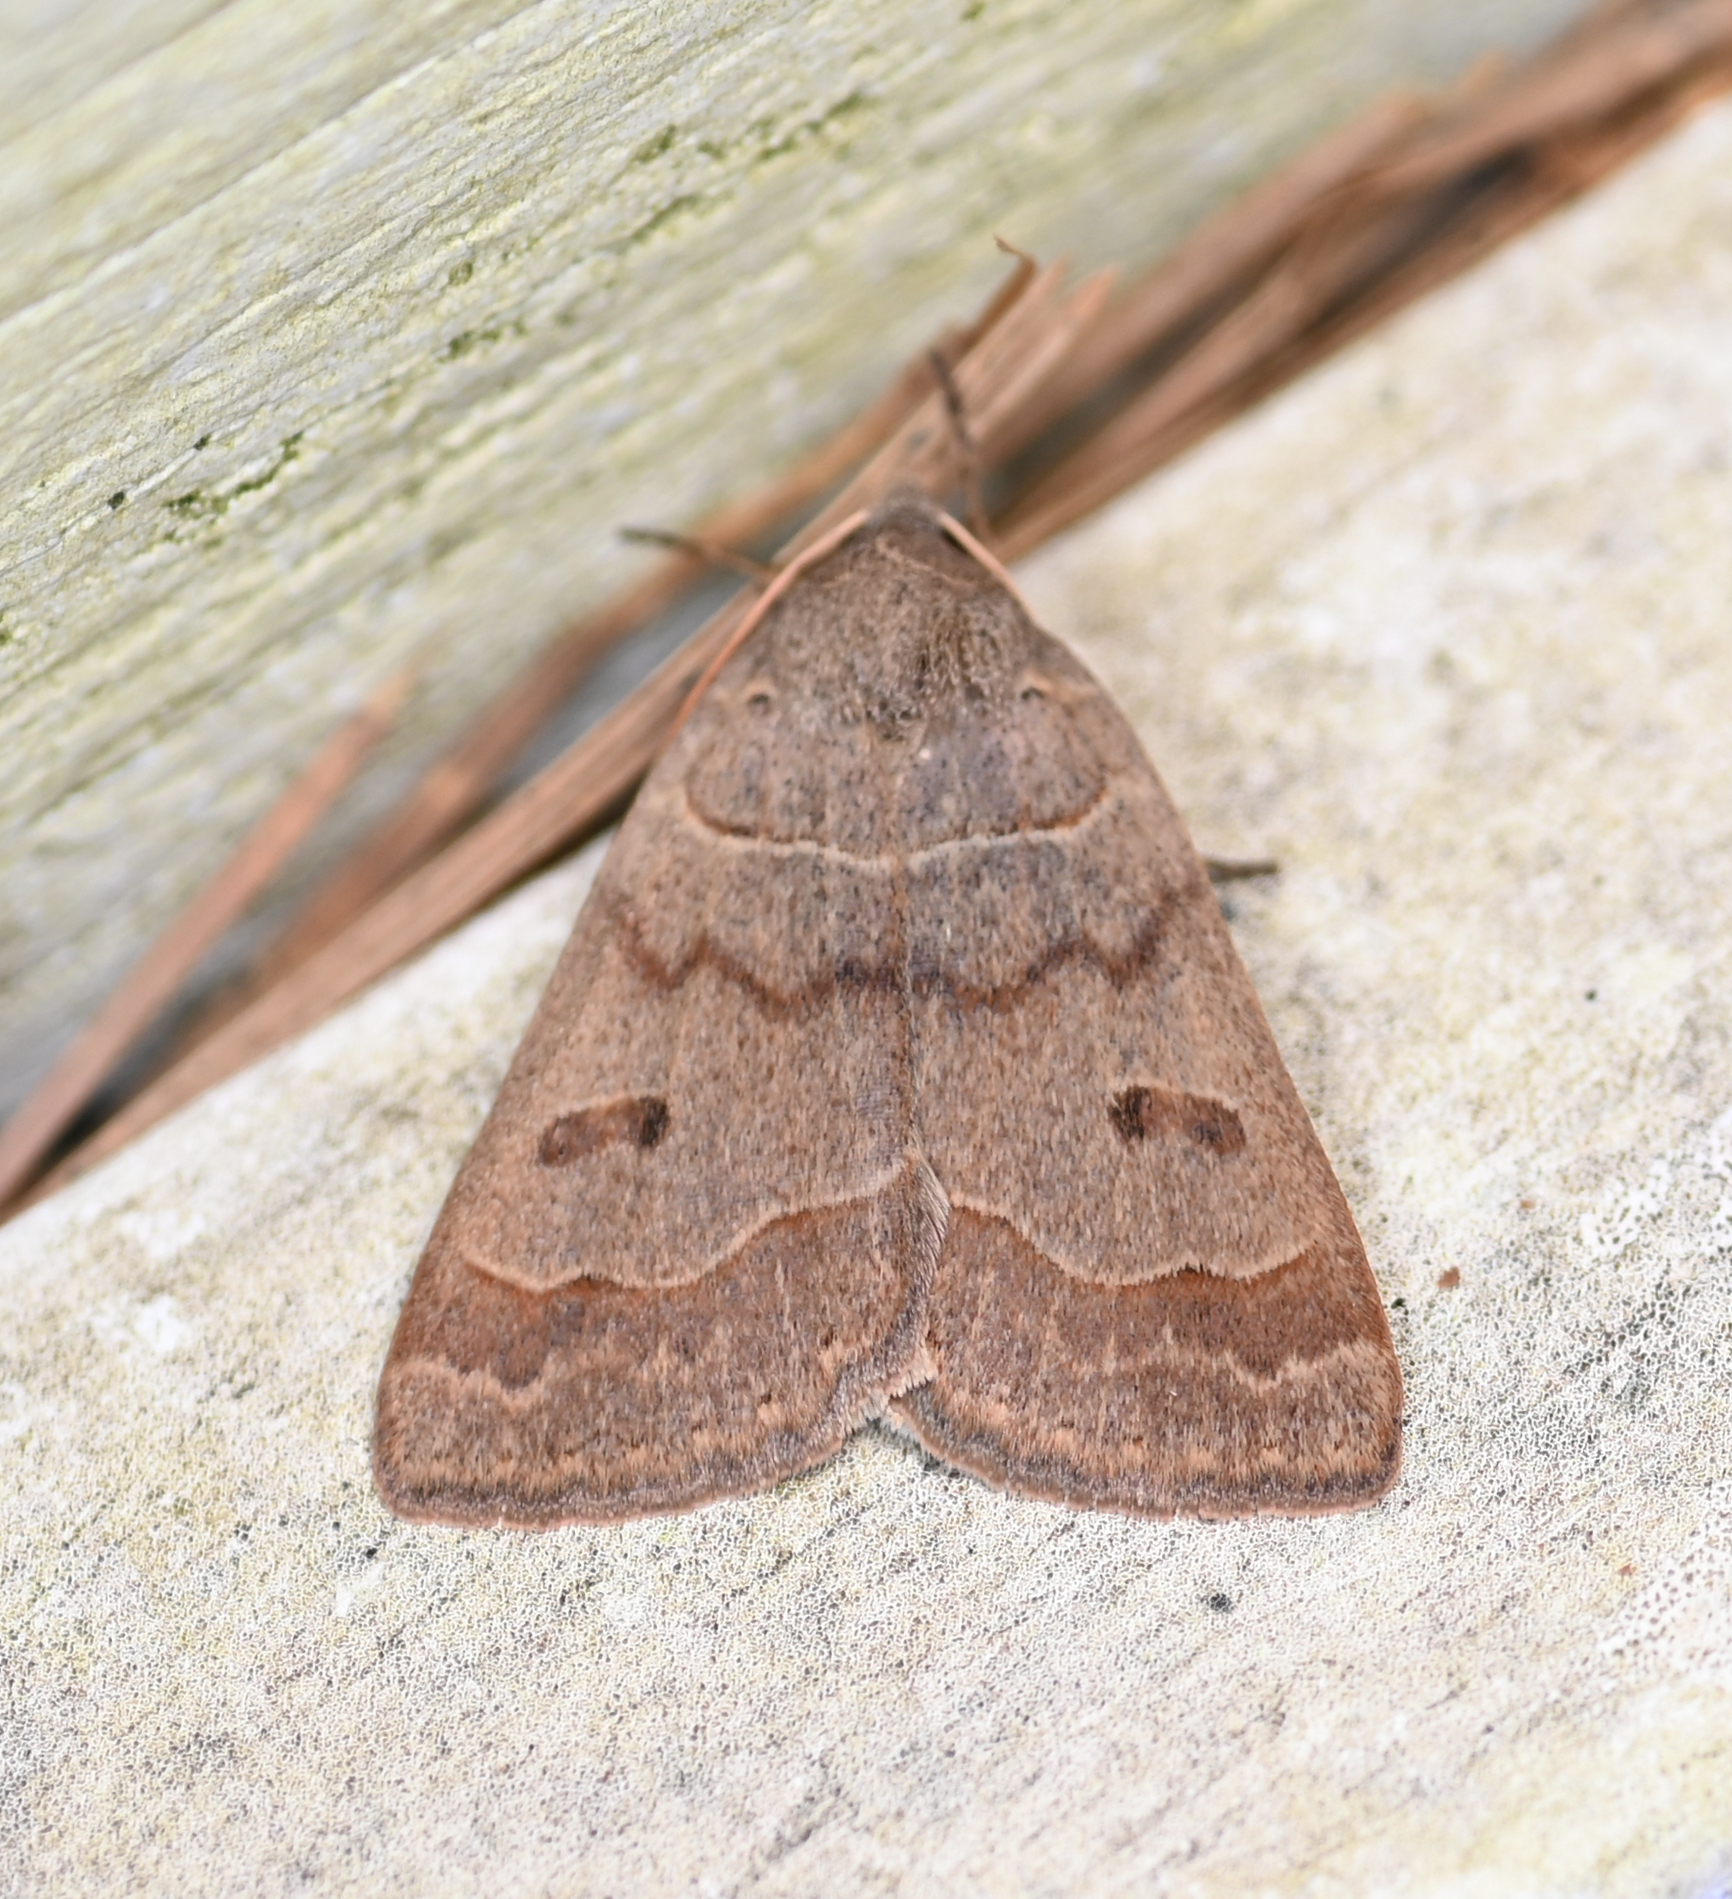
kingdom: Animalia
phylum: Arthropoda
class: Insecta
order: Lepidoptera
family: Erebidae
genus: Phoberia
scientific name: Phoberia atomaris
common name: Common oak moth
